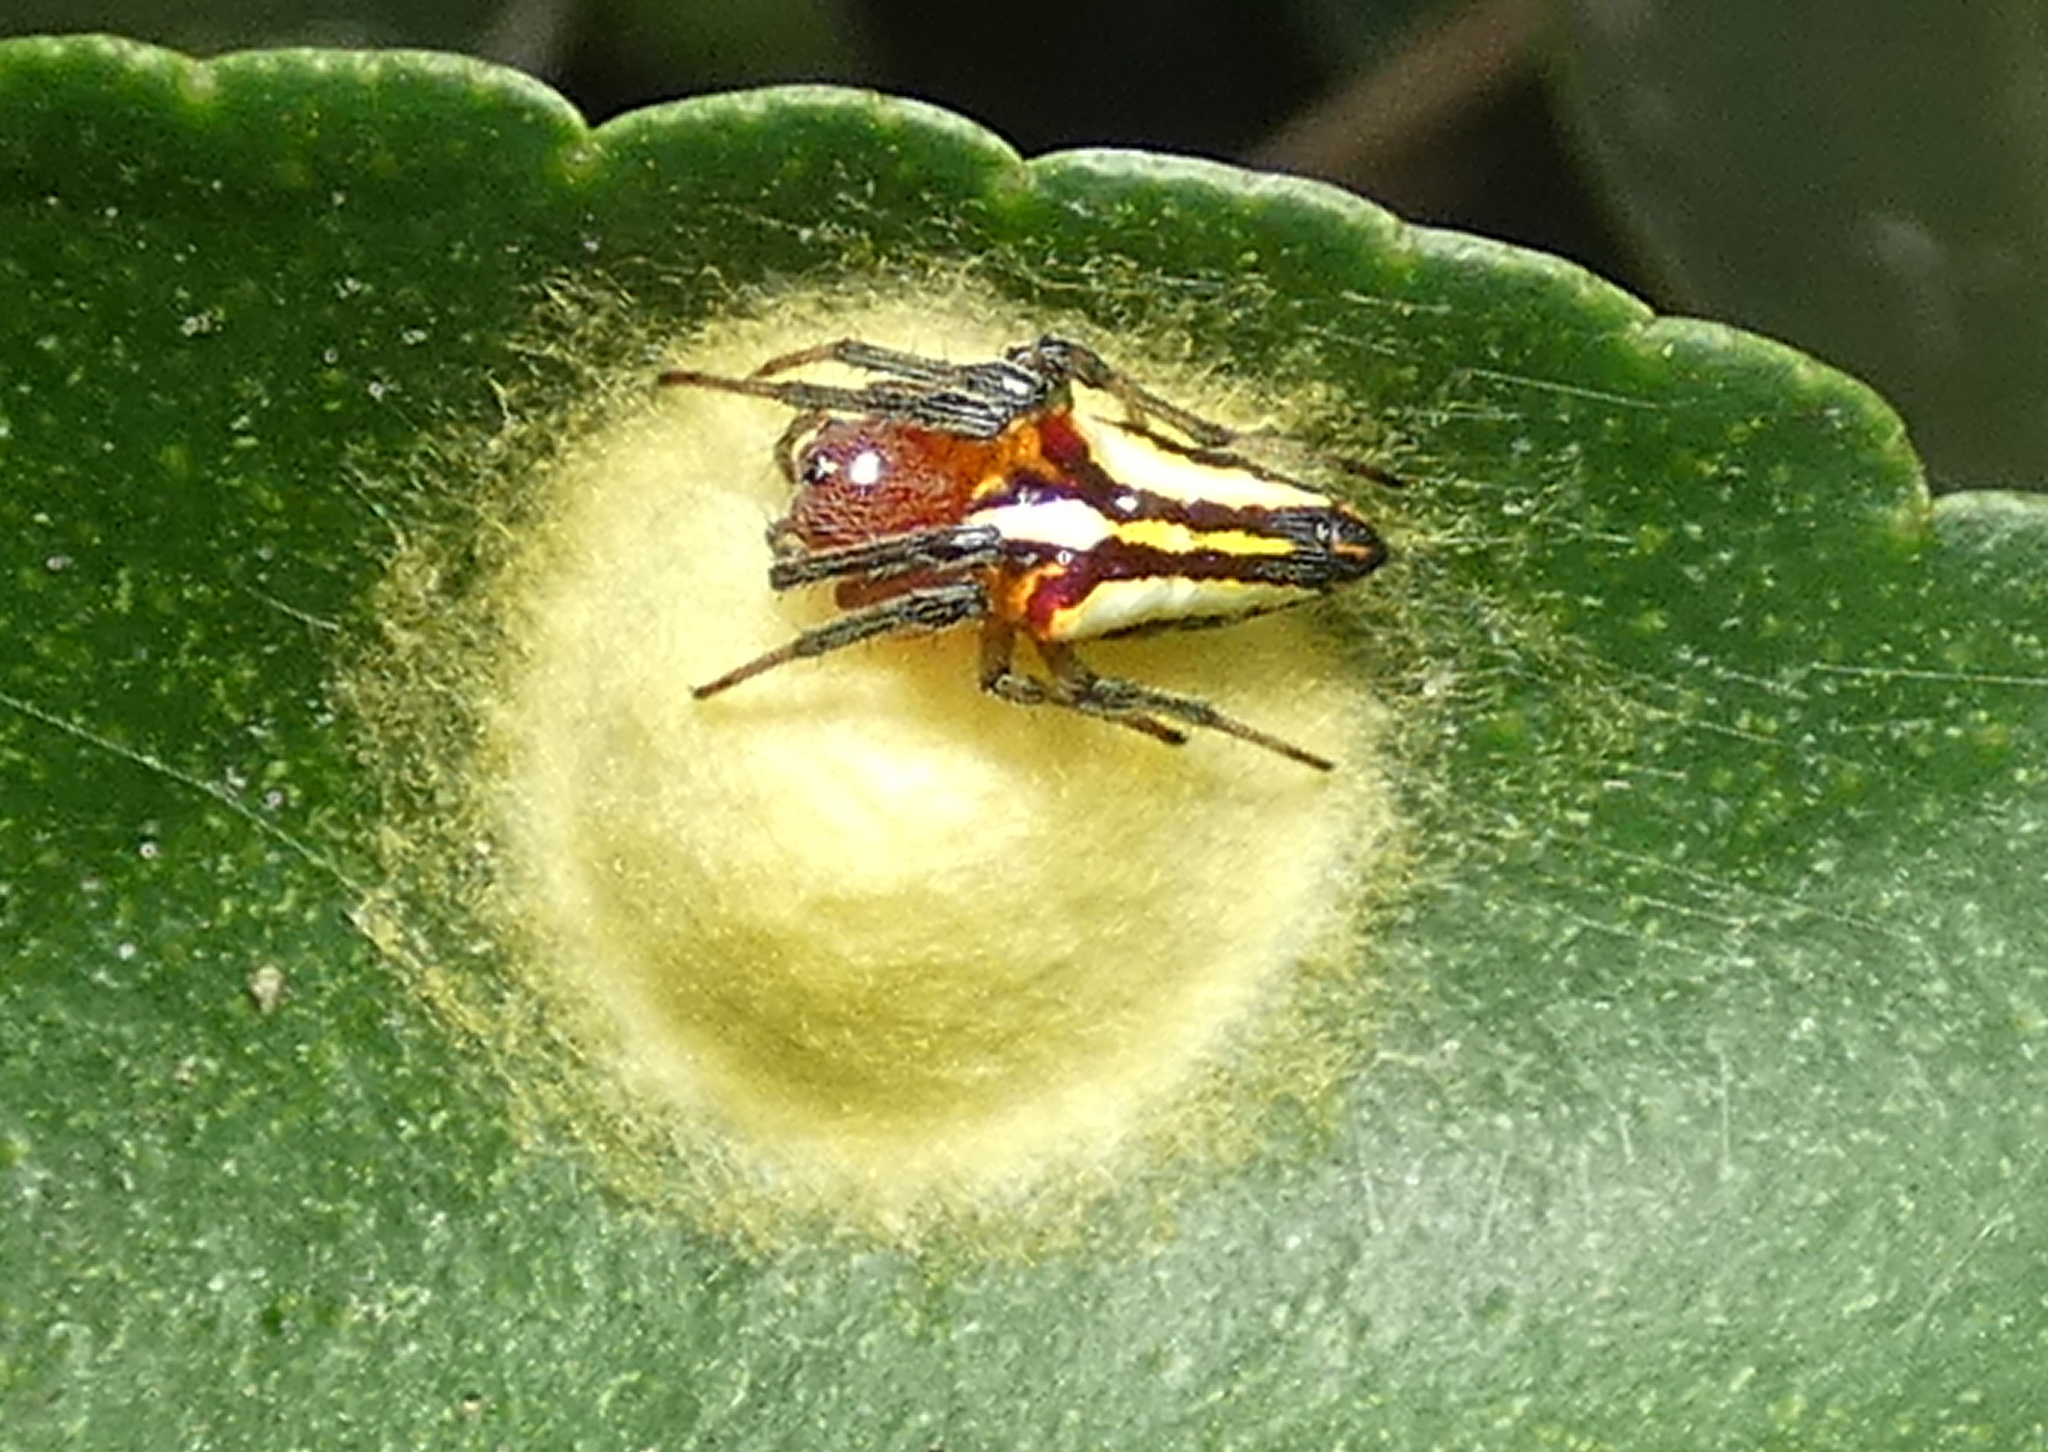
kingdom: Animalia
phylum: Arthropoda
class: Arachnida
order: Araneae
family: Araneidae
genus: Alpaida
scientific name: Alpaida bicornuta
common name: Orb weavers
